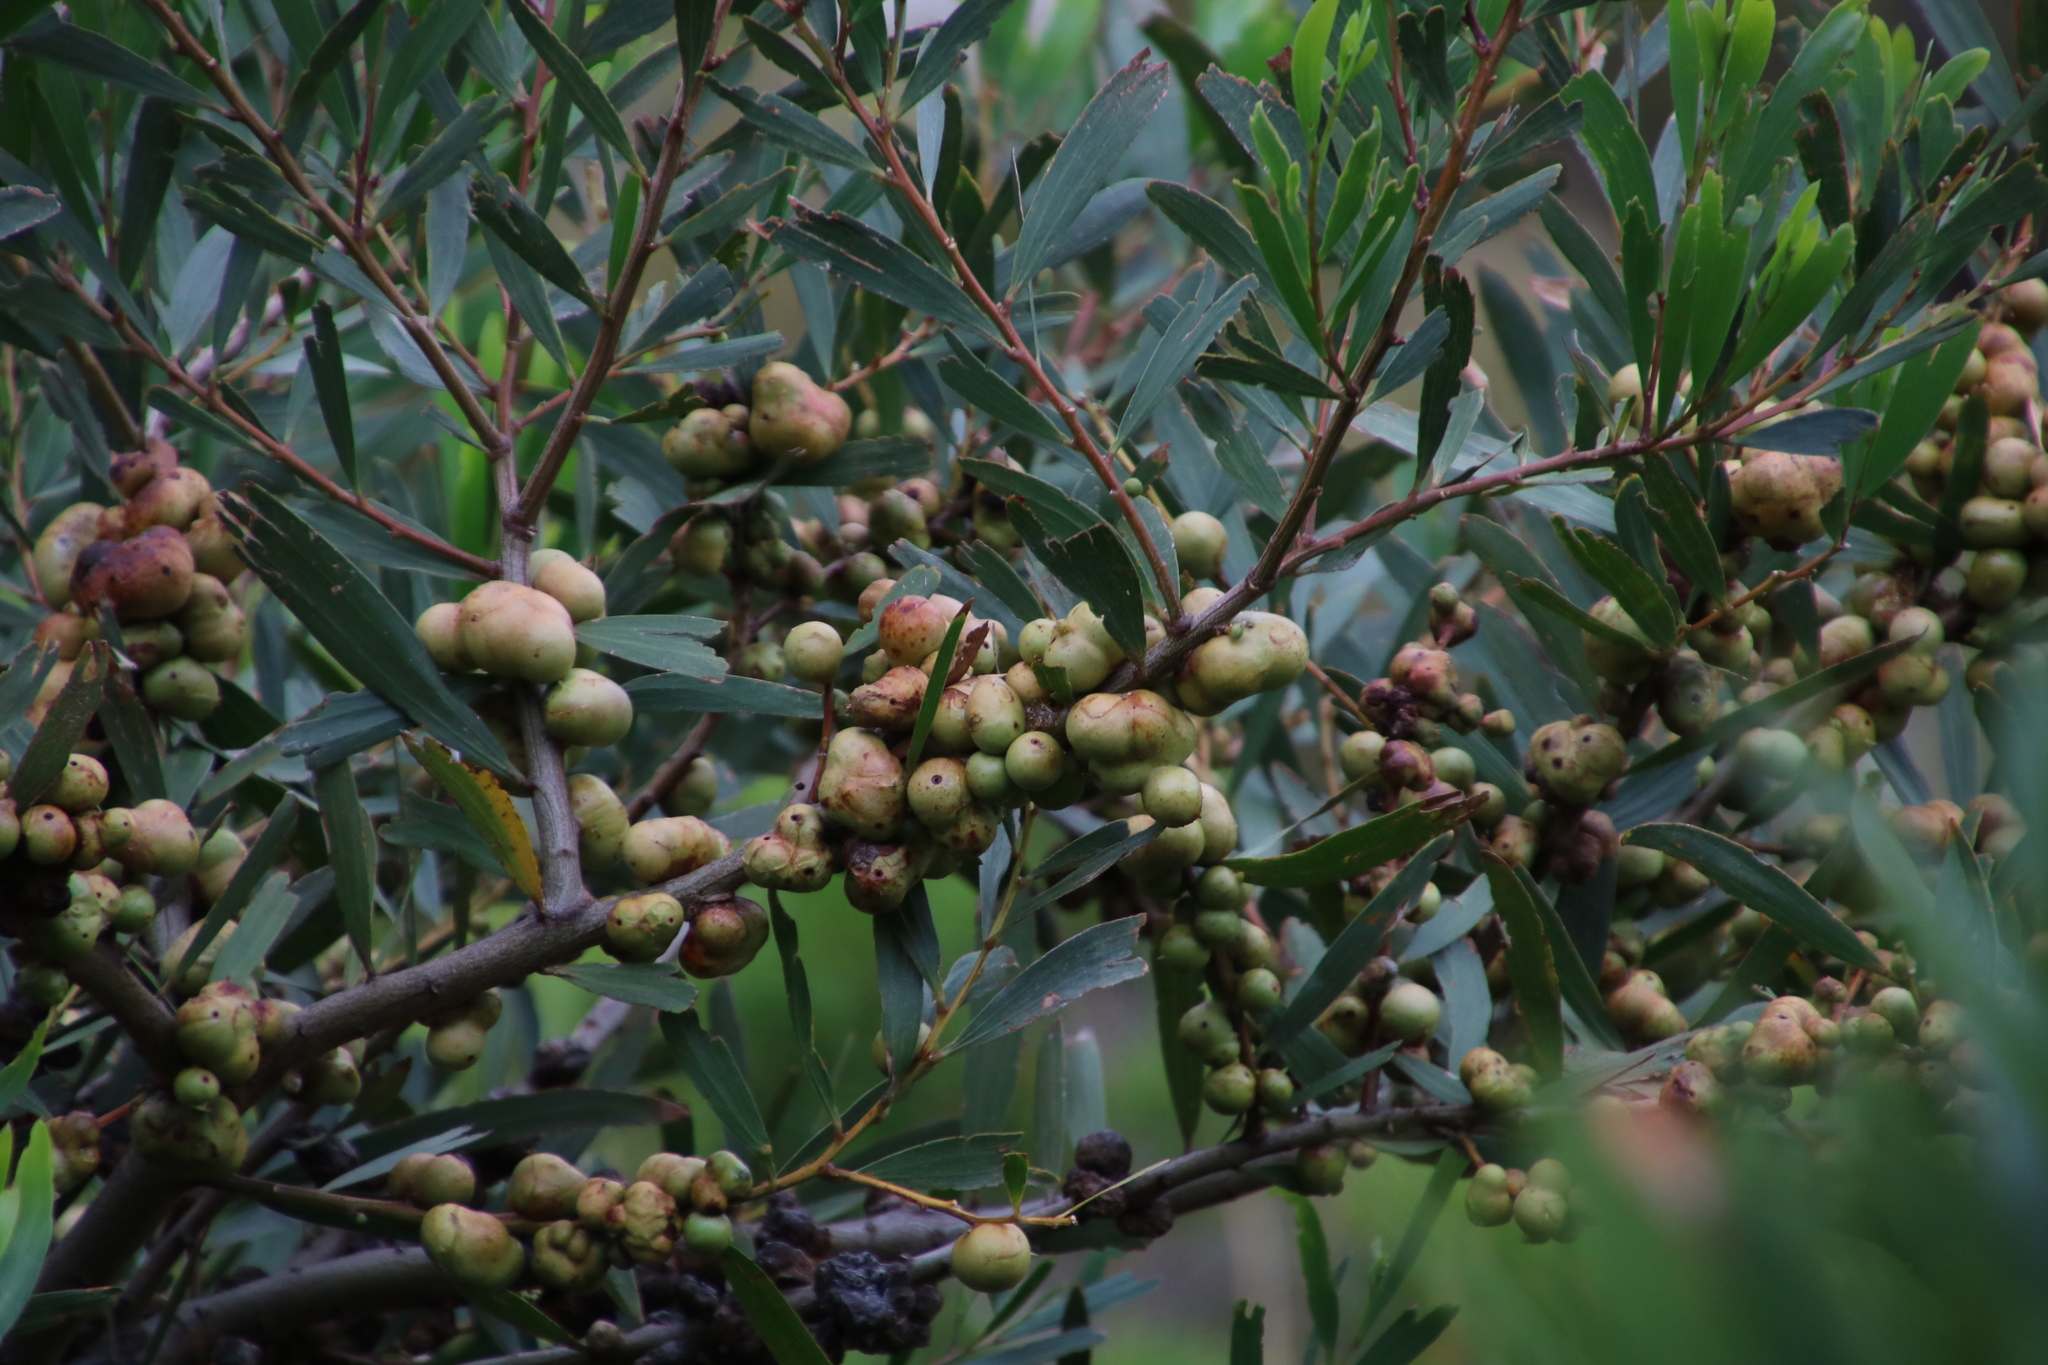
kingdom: Plantae
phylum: Tracheophyta
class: Magnoliopsida
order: Fabales
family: Fabaceae
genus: Acacia
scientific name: Acacia longifolia
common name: Sydney golden wattle
